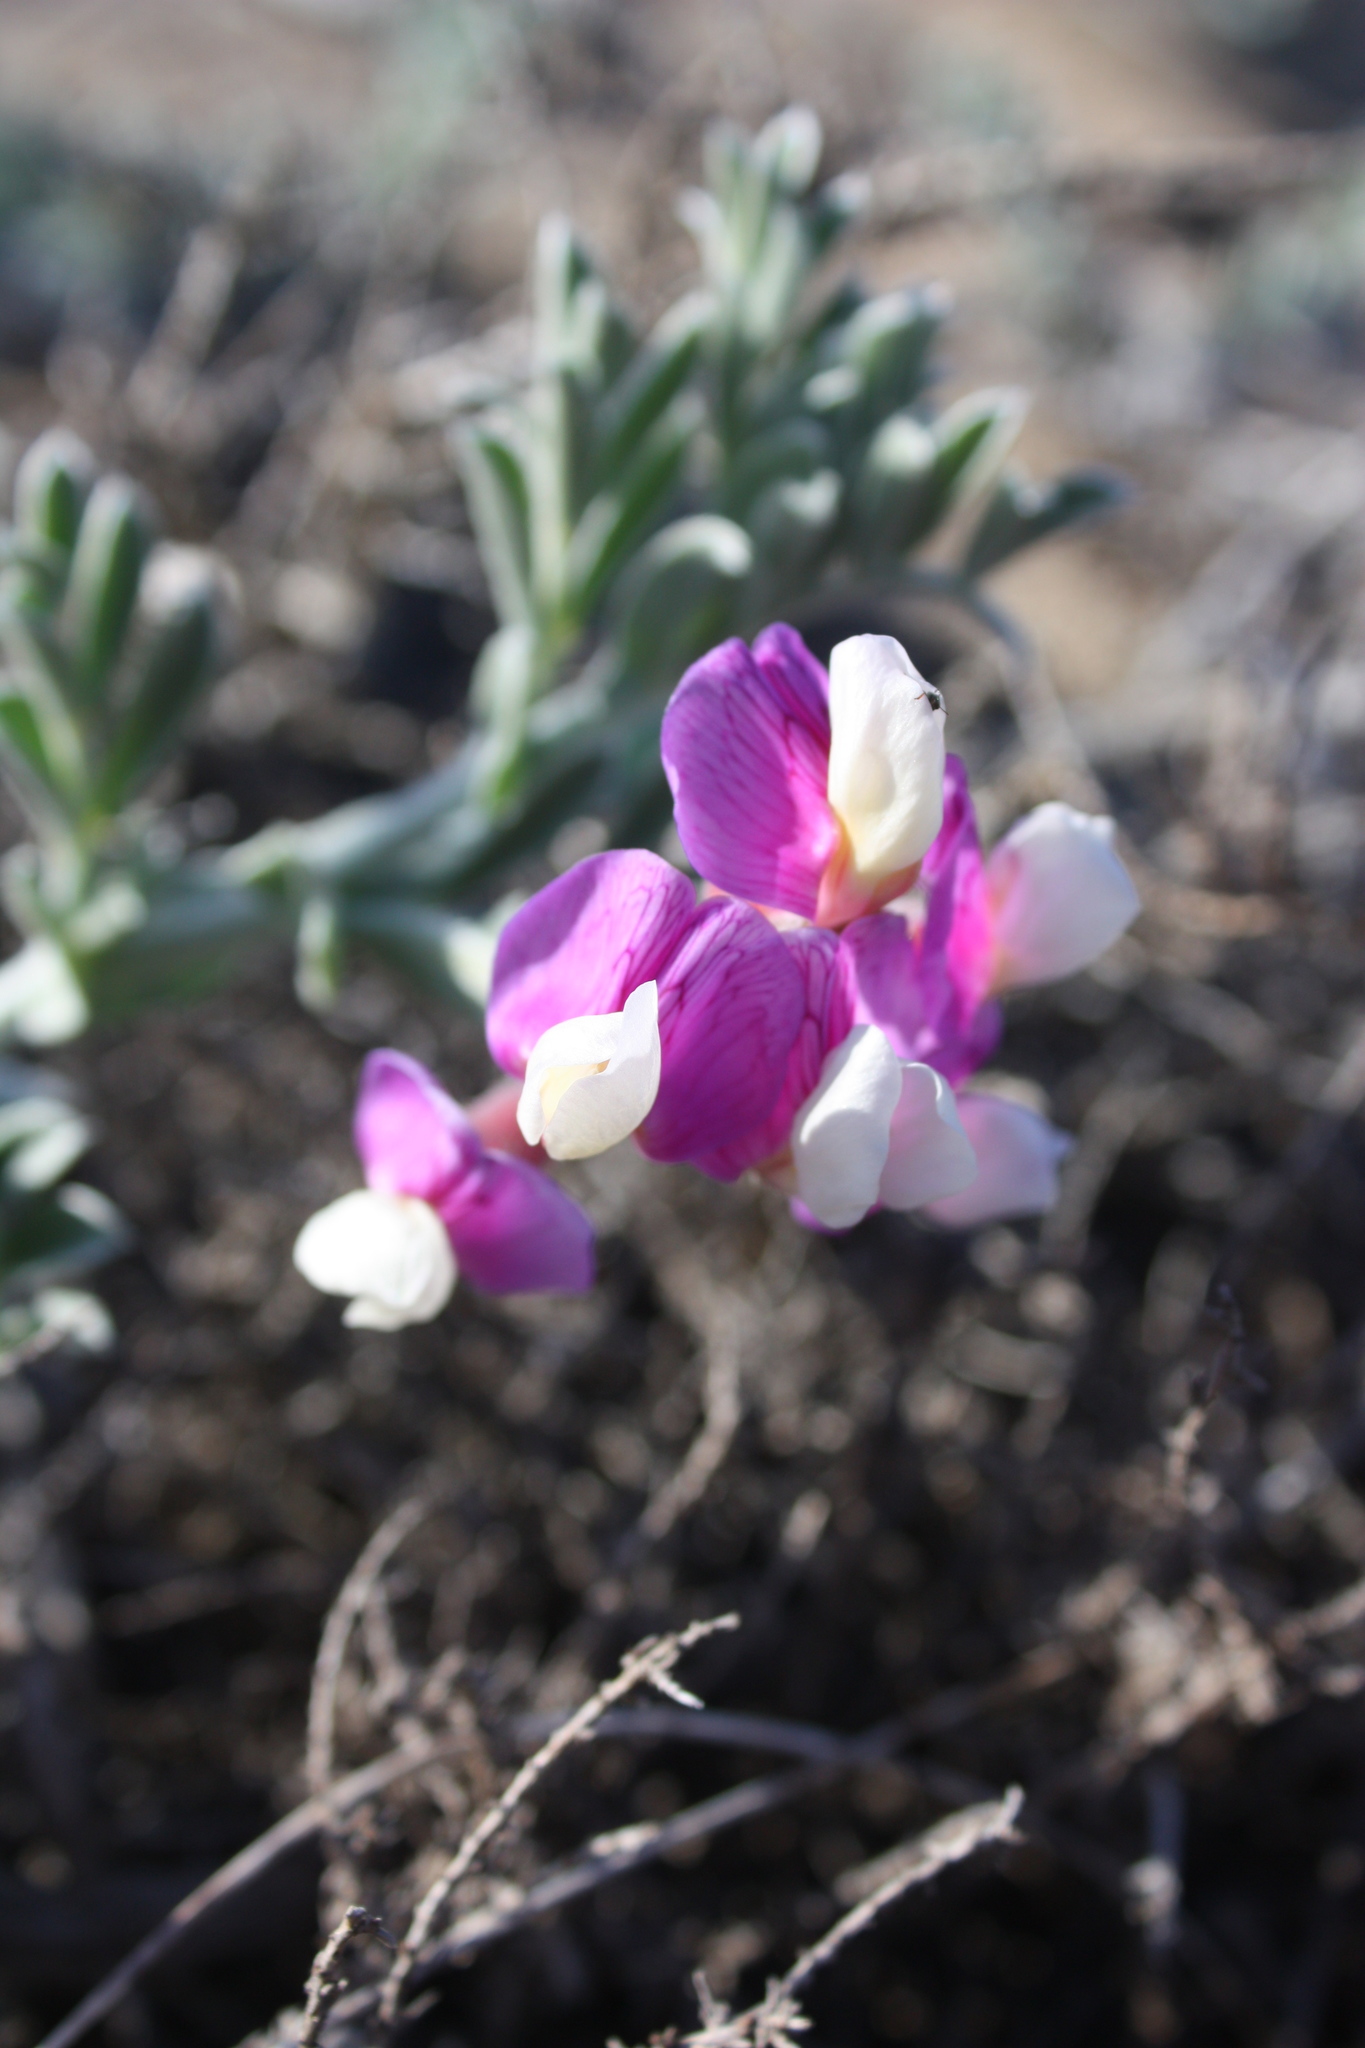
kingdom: Plantae
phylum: Tracheophyta
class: Magnoliopsida
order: Fabales
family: Fabaceae
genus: Lathyrus
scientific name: Lathyrus littoralis
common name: Dune sweet pea
